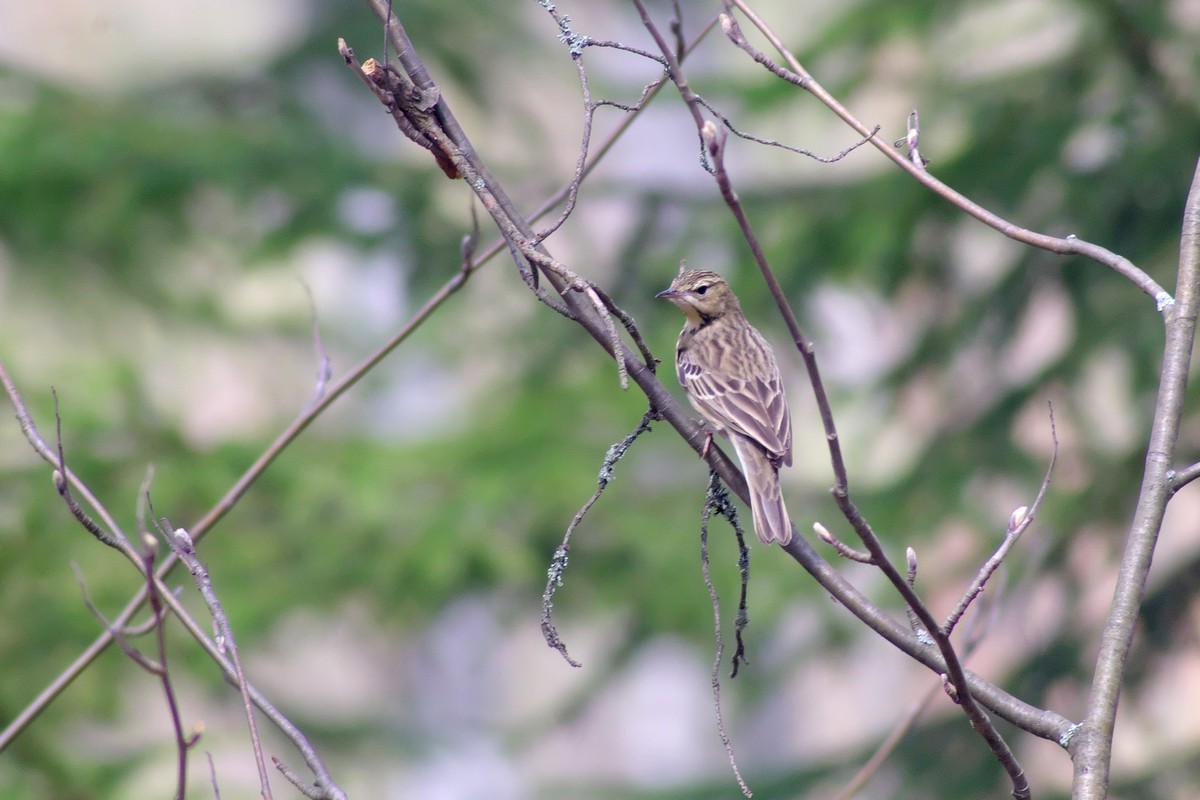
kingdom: Animalia
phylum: Chordata
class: Aves
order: Passeriformes
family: Motacillidae
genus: Anthus
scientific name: Anthus trivialis
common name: Tree pipit
